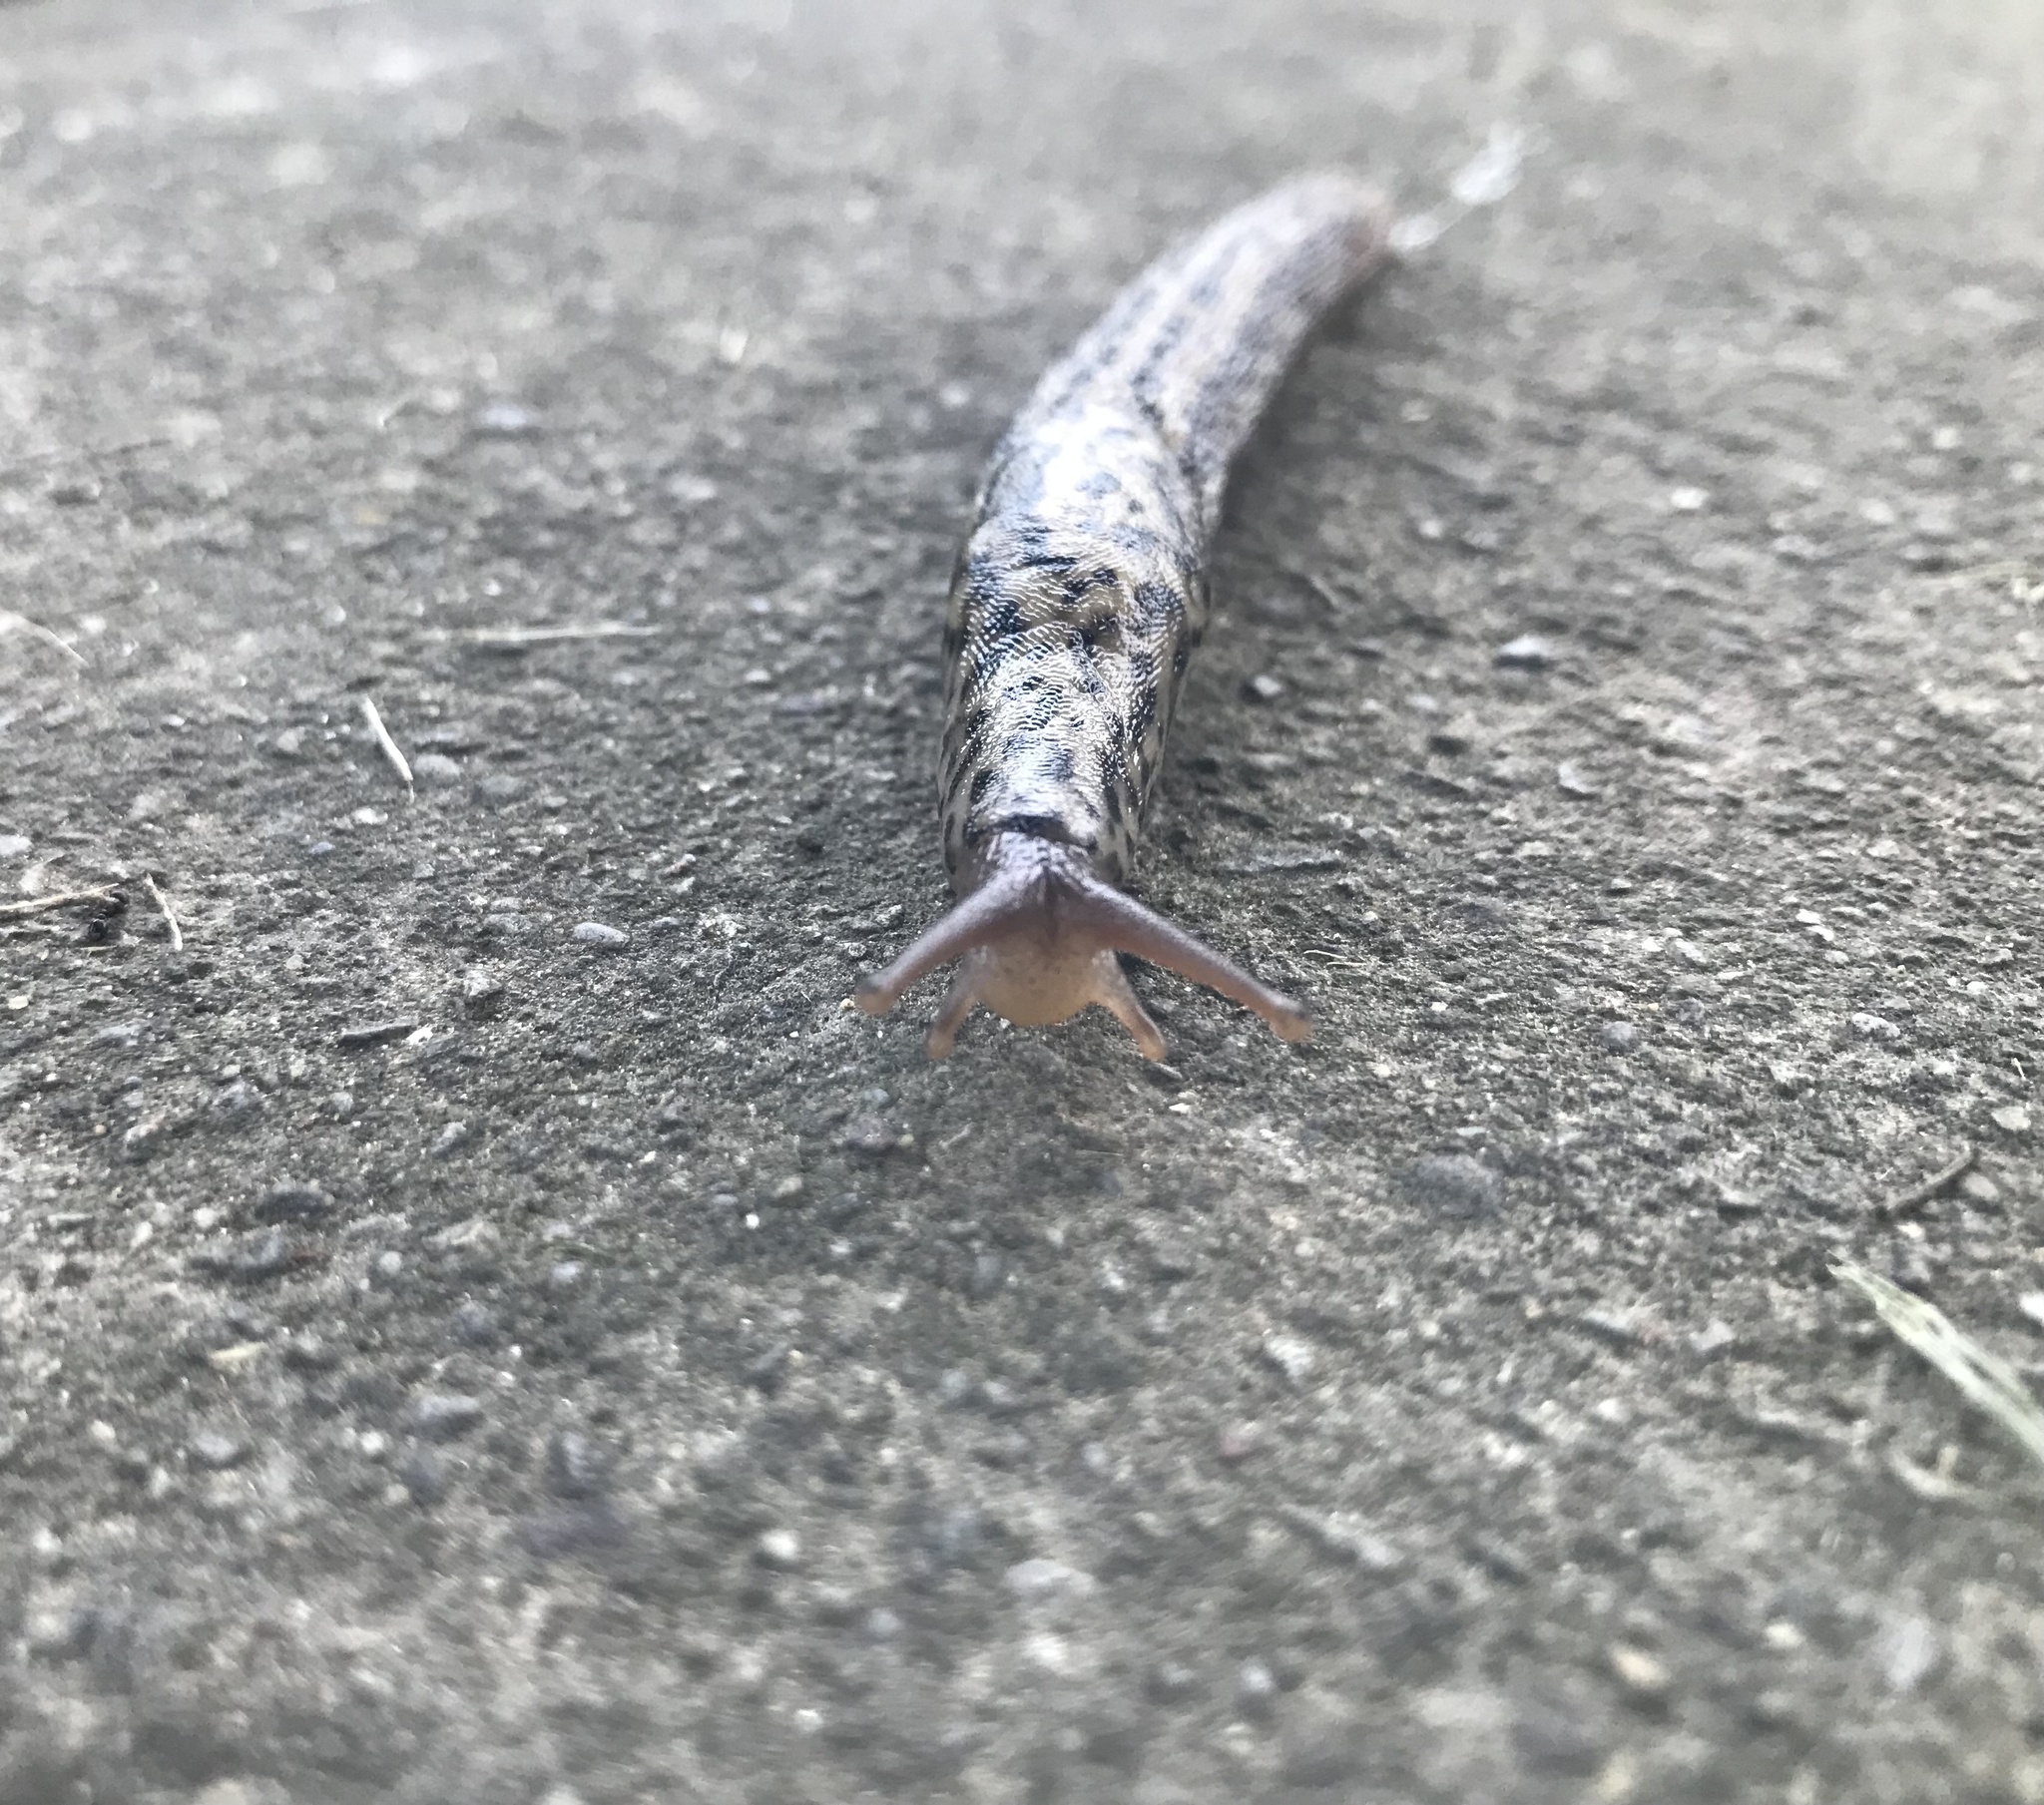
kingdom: Animalia
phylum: Mollusca
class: Gastropoda
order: Stylommatophora
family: Limacidae
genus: Limax
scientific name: Limax maximus
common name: Great grey slug
